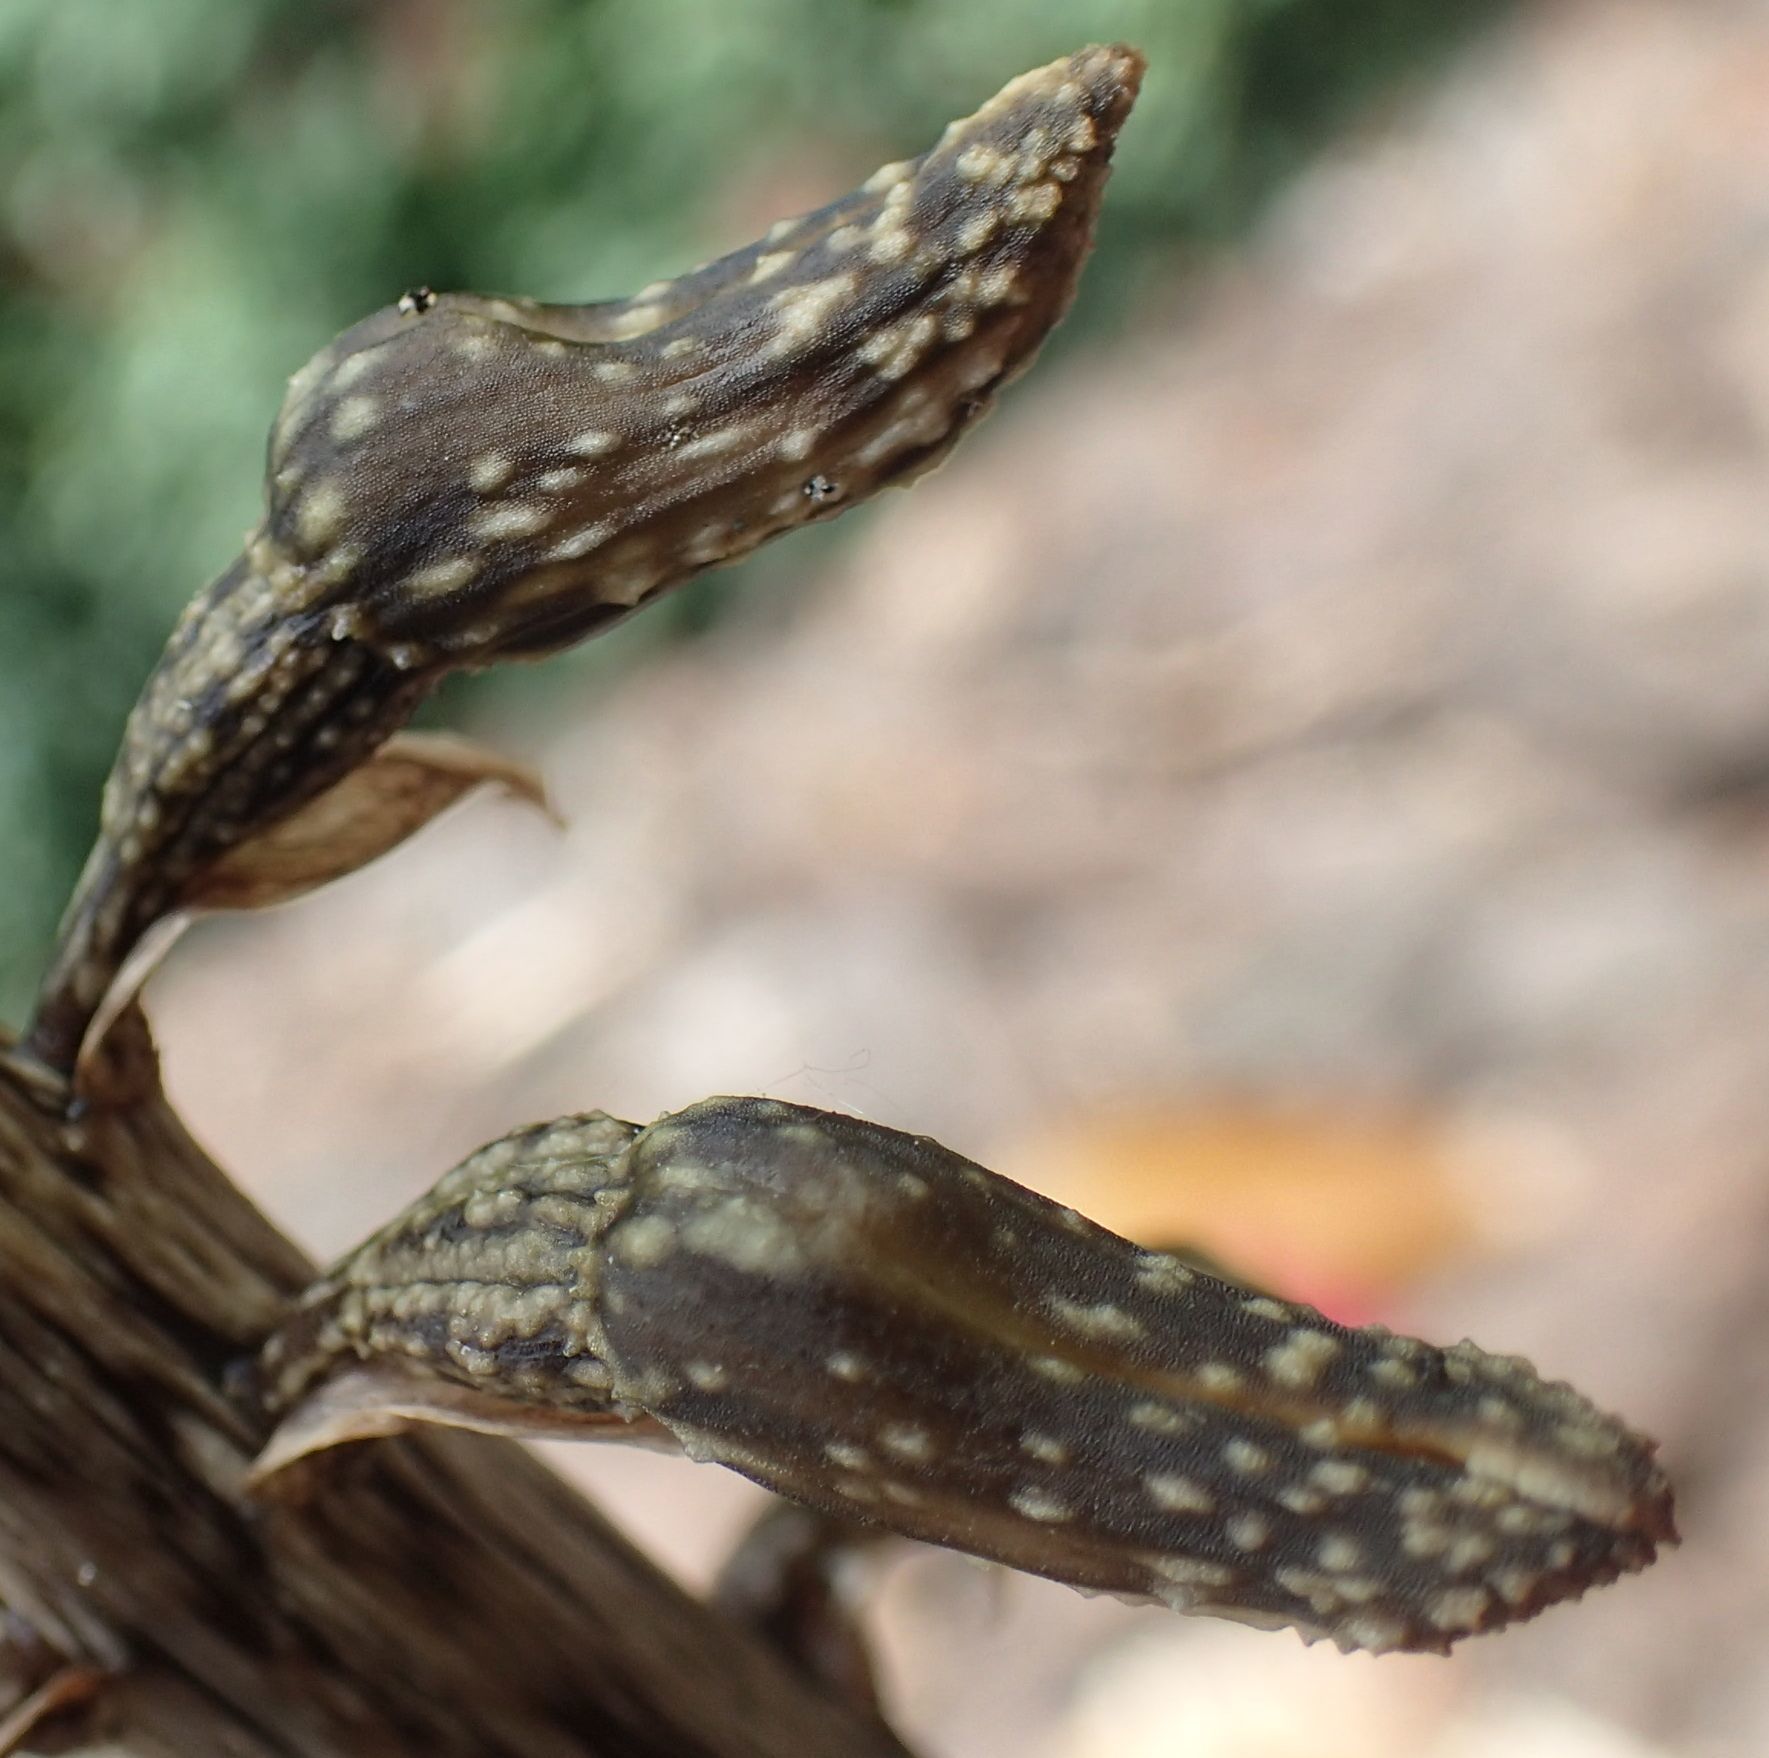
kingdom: Plantae
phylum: Tracheophyta
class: Liliopsida
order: Asparagales
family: Orchidaceae
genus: Gastrodia
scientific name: Gastrodia molloyi
